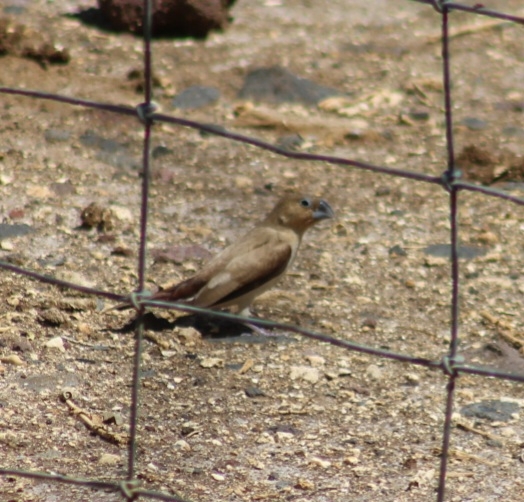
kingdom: Animalia
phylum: Chordata
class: Aves
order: Passeriformes
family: Estrildidae
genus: Euodice
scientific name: Euodice cantans
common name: African silverbill
